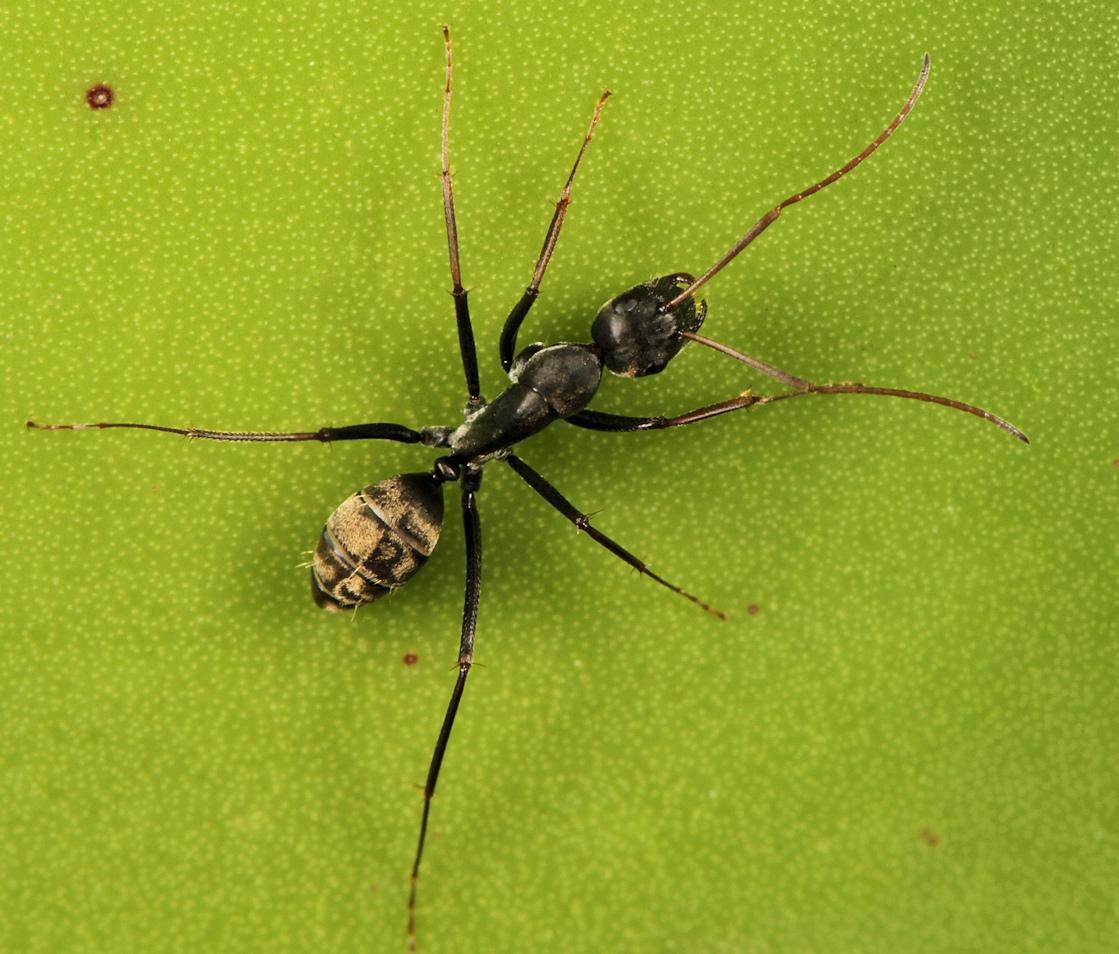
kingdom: Animalia
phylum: Arthropoda
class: Insecta
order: Hymenoptera
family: Formicidae
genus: Camponotus
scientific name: Camponotus cinctellus
